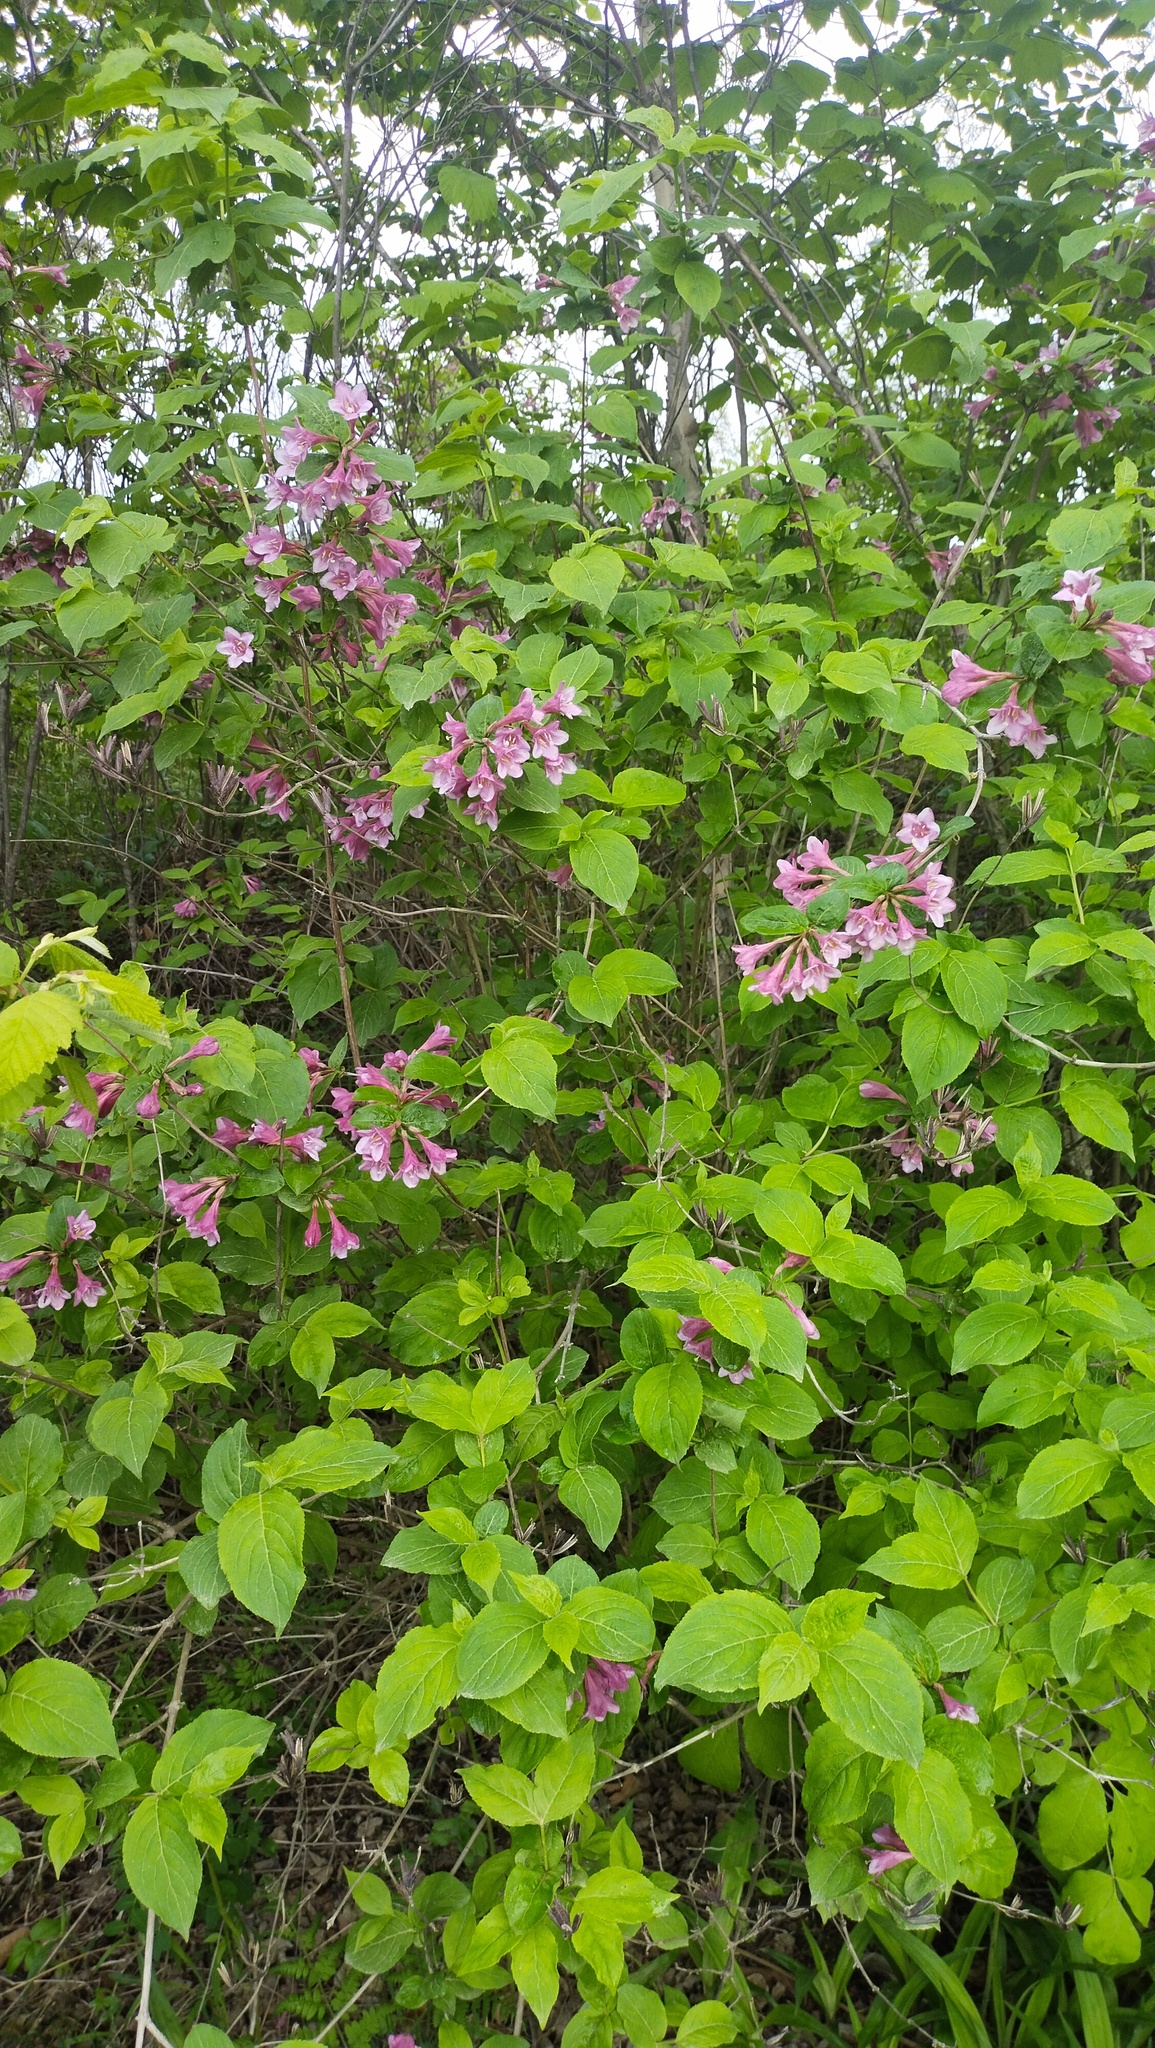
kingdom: Plantae
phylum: Tracheophyta
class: Magnoliopsida
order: Dipsacales
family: Caprifoliaceae
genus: Weigela
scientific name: Weigela florida
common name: Weigelia
